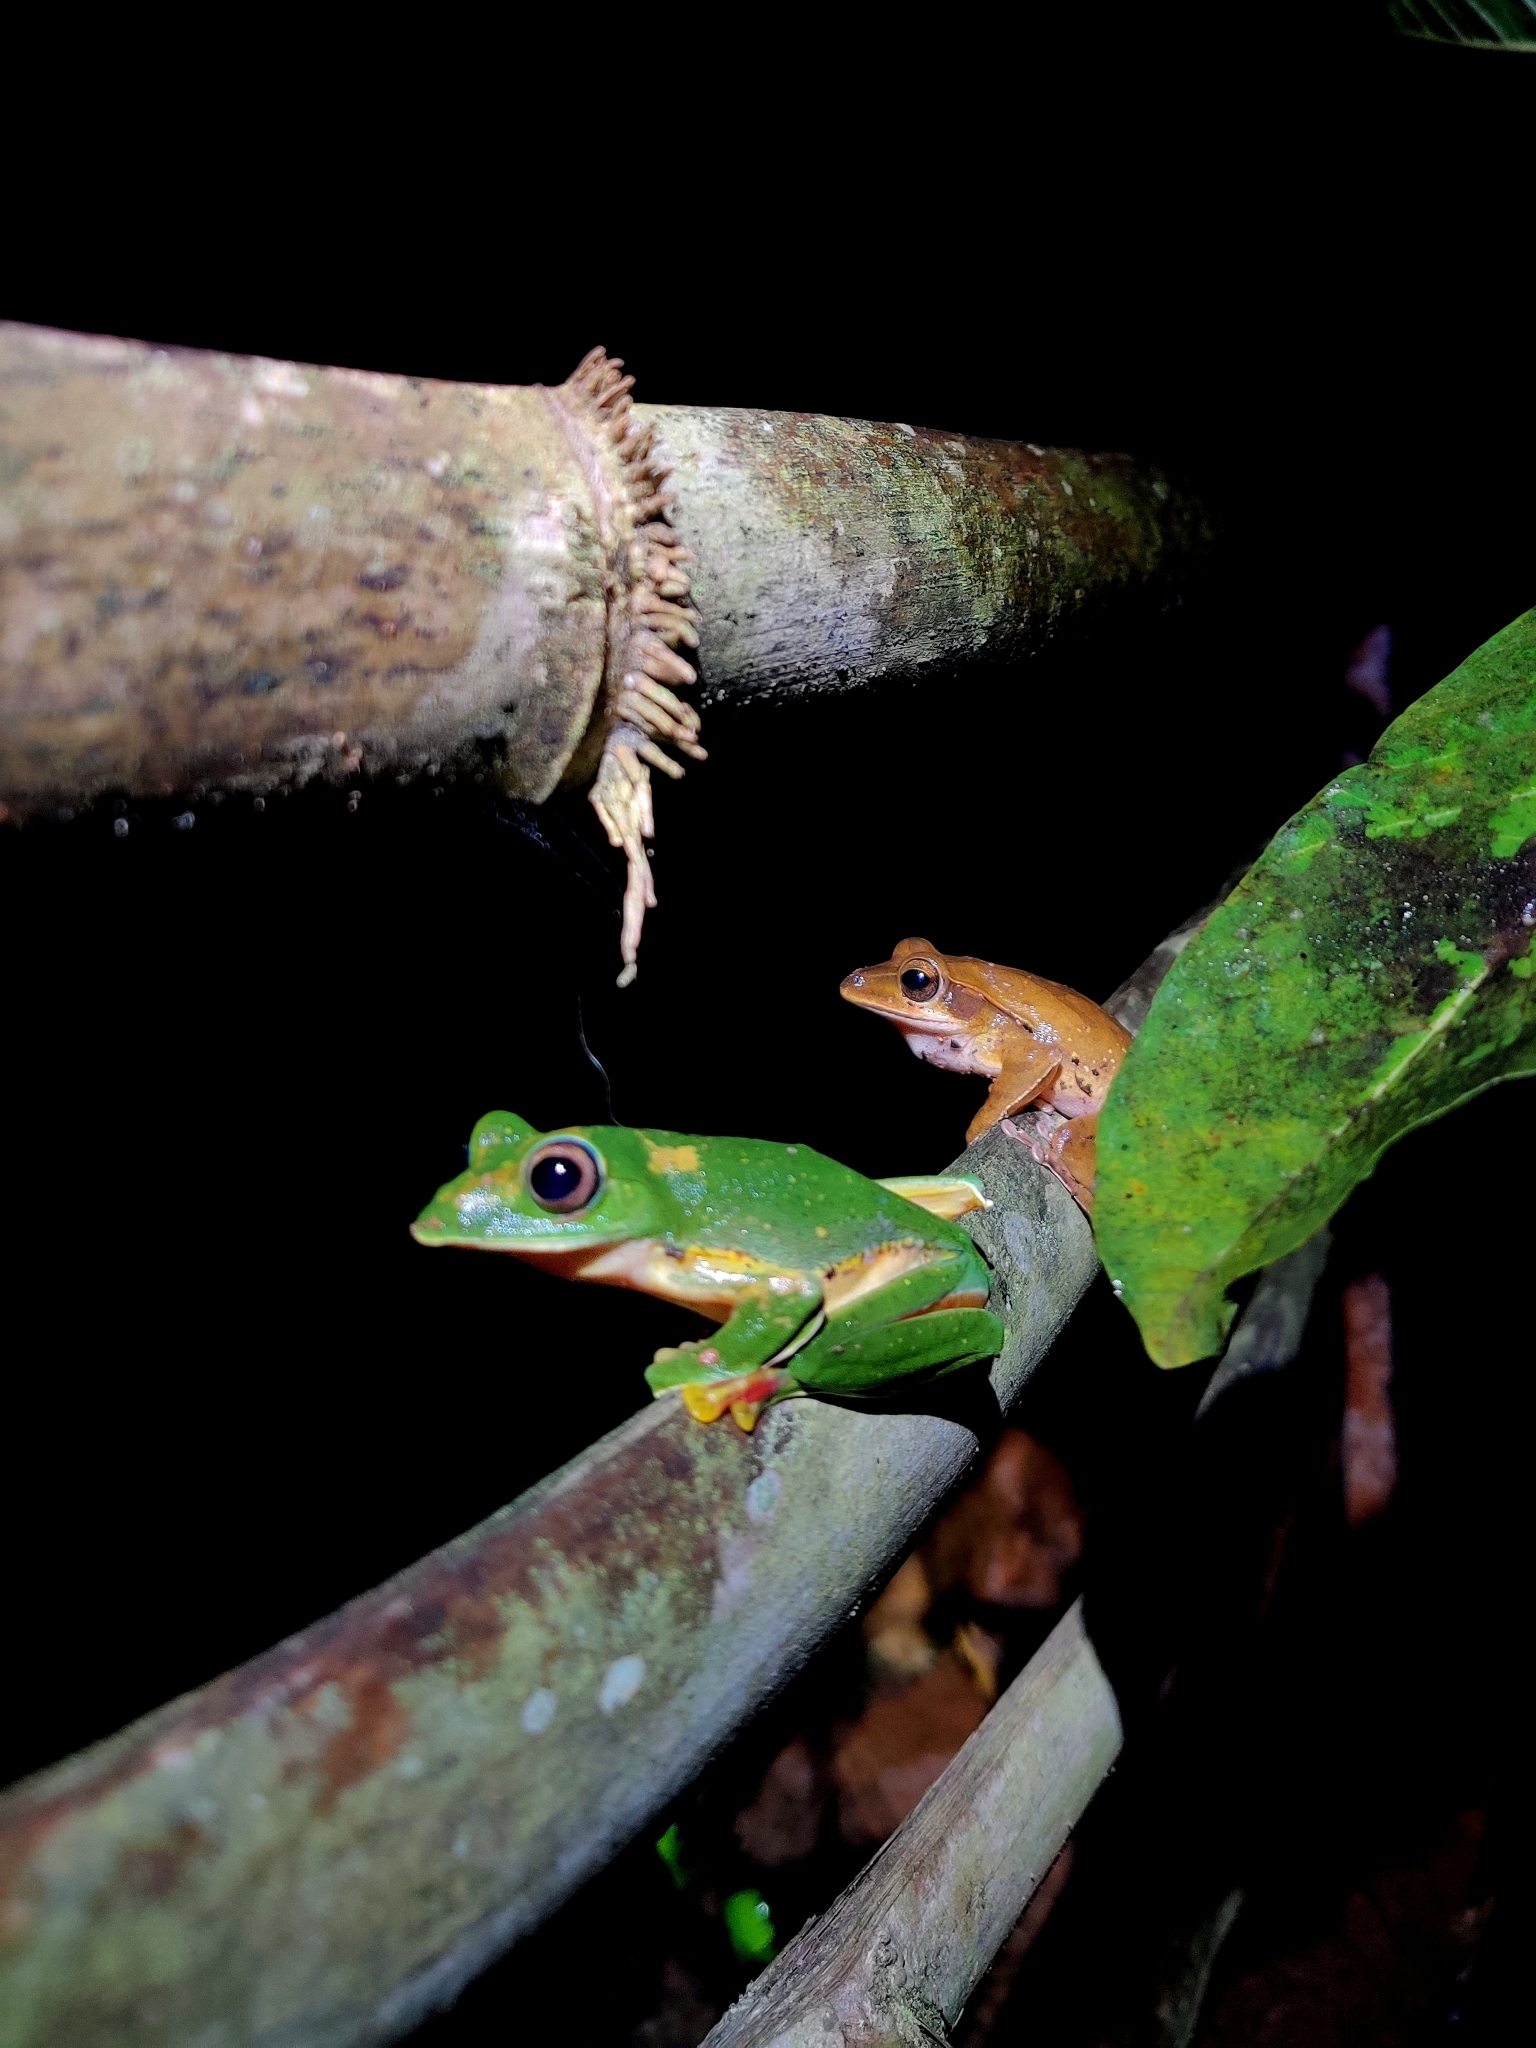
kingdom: Animalia
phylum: Chordata
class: Amphibia
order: Anura
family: Rhacophoridae
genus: Rhacophorus
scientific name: Rhacophorus malabaricus
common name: Malabar gliding frog
